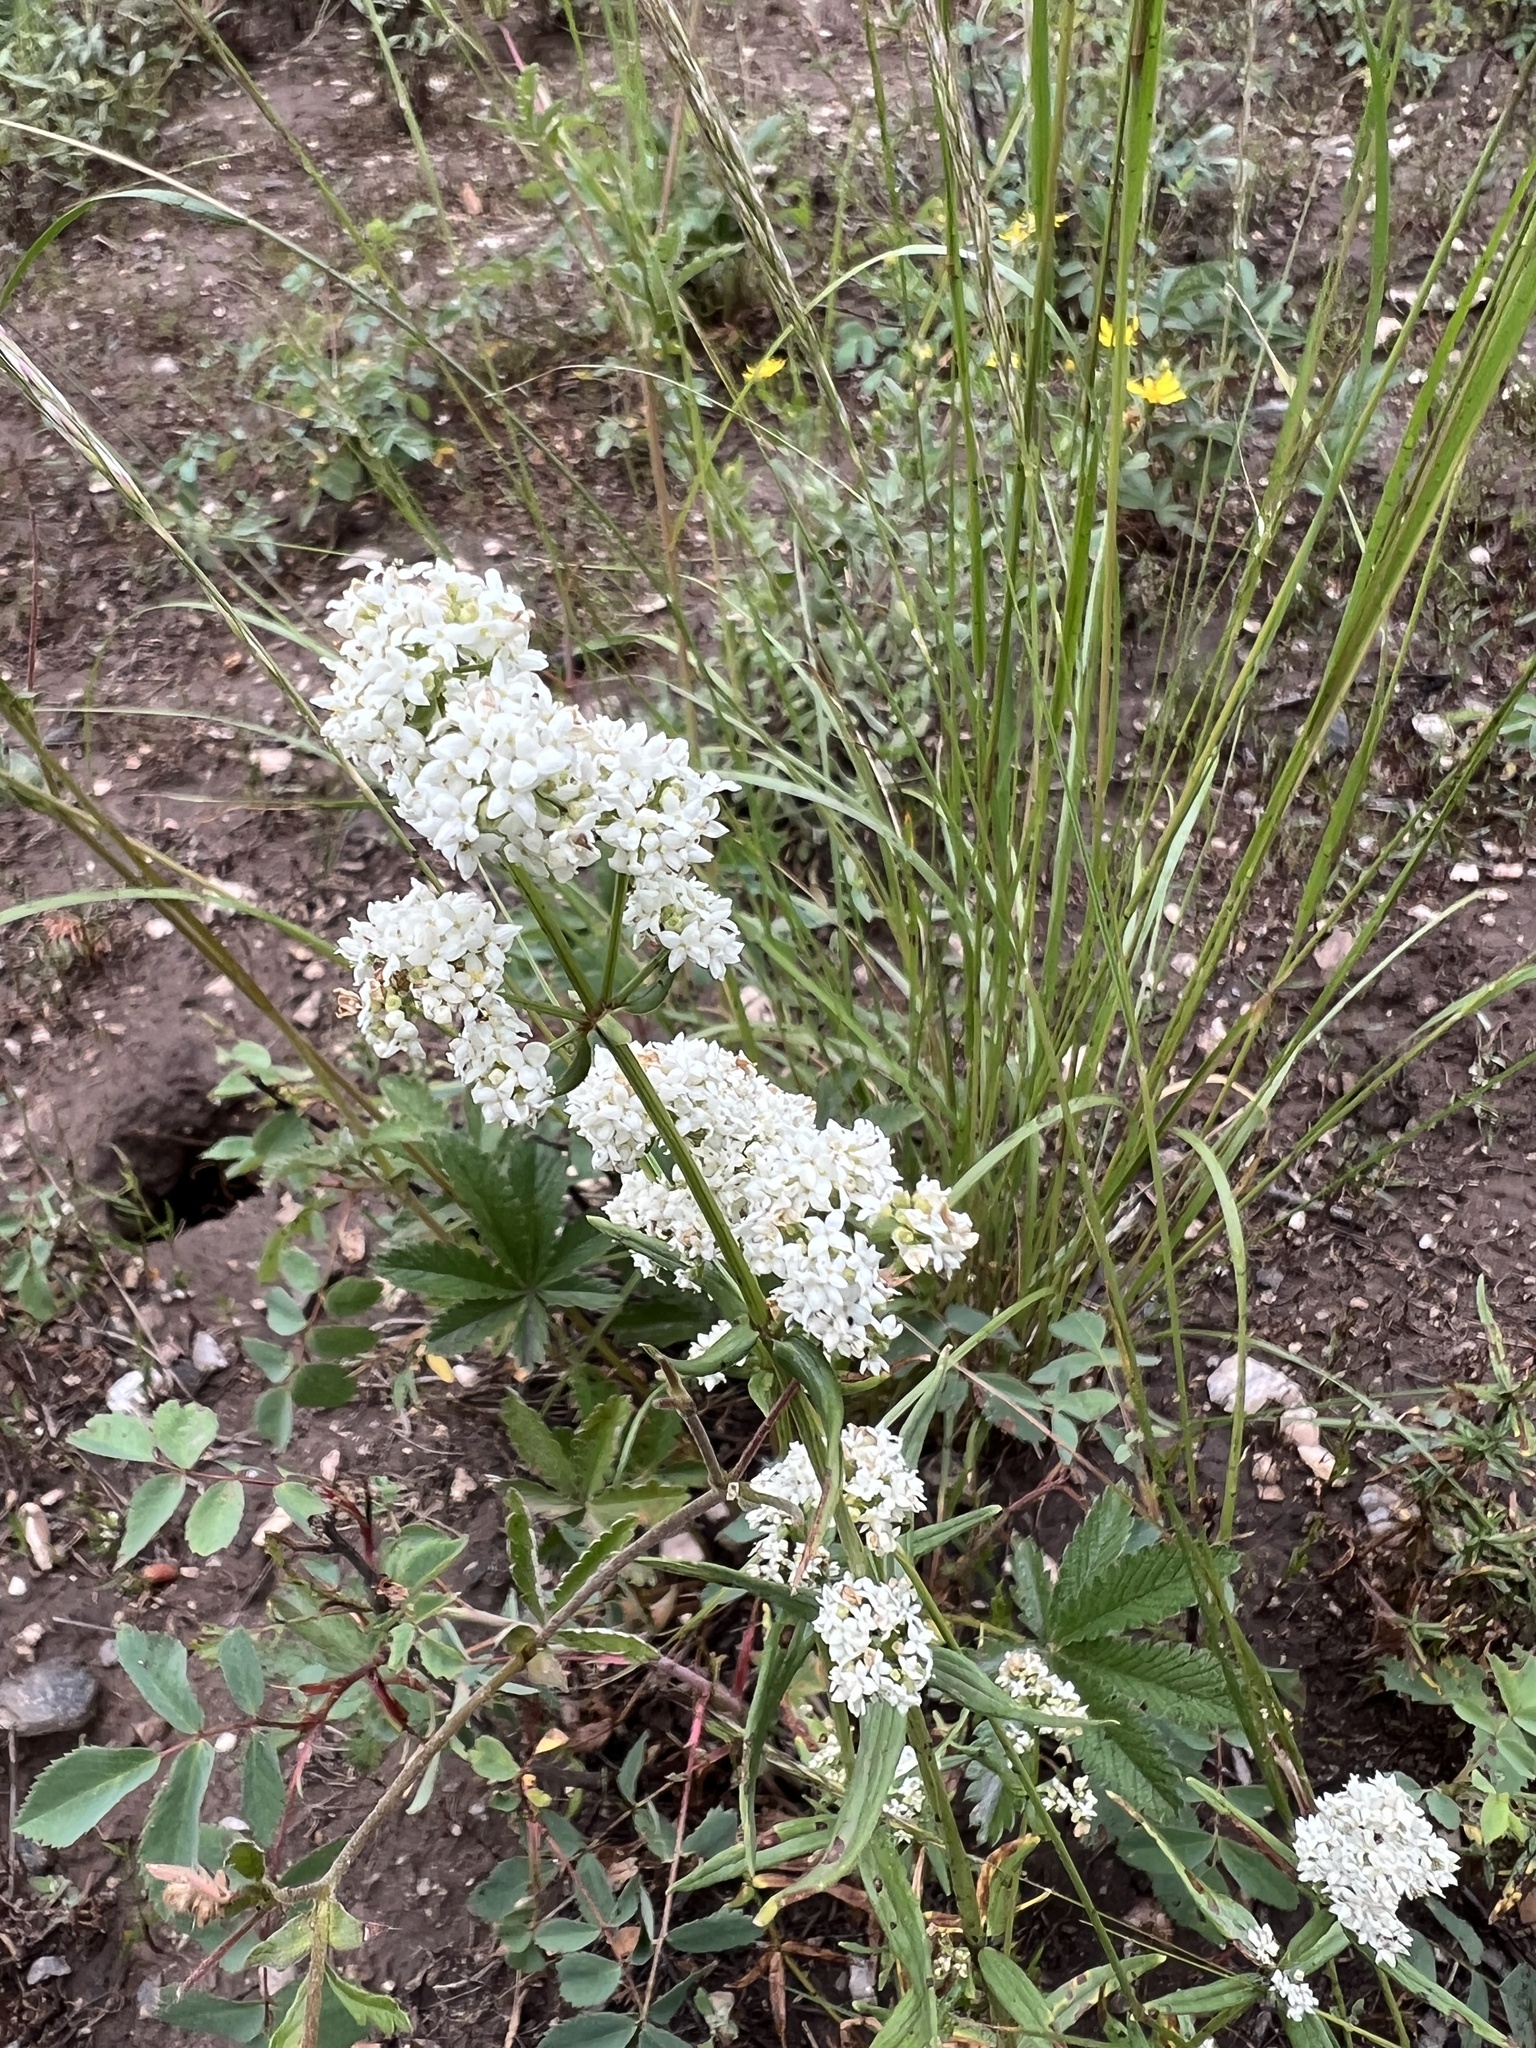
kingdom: Plantae
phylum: Tracheophyta
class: Magnoliopsida
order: Gentianales
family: Rubiaceae
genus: Galium
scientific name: Galium boreale
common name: Northern bedstraw
